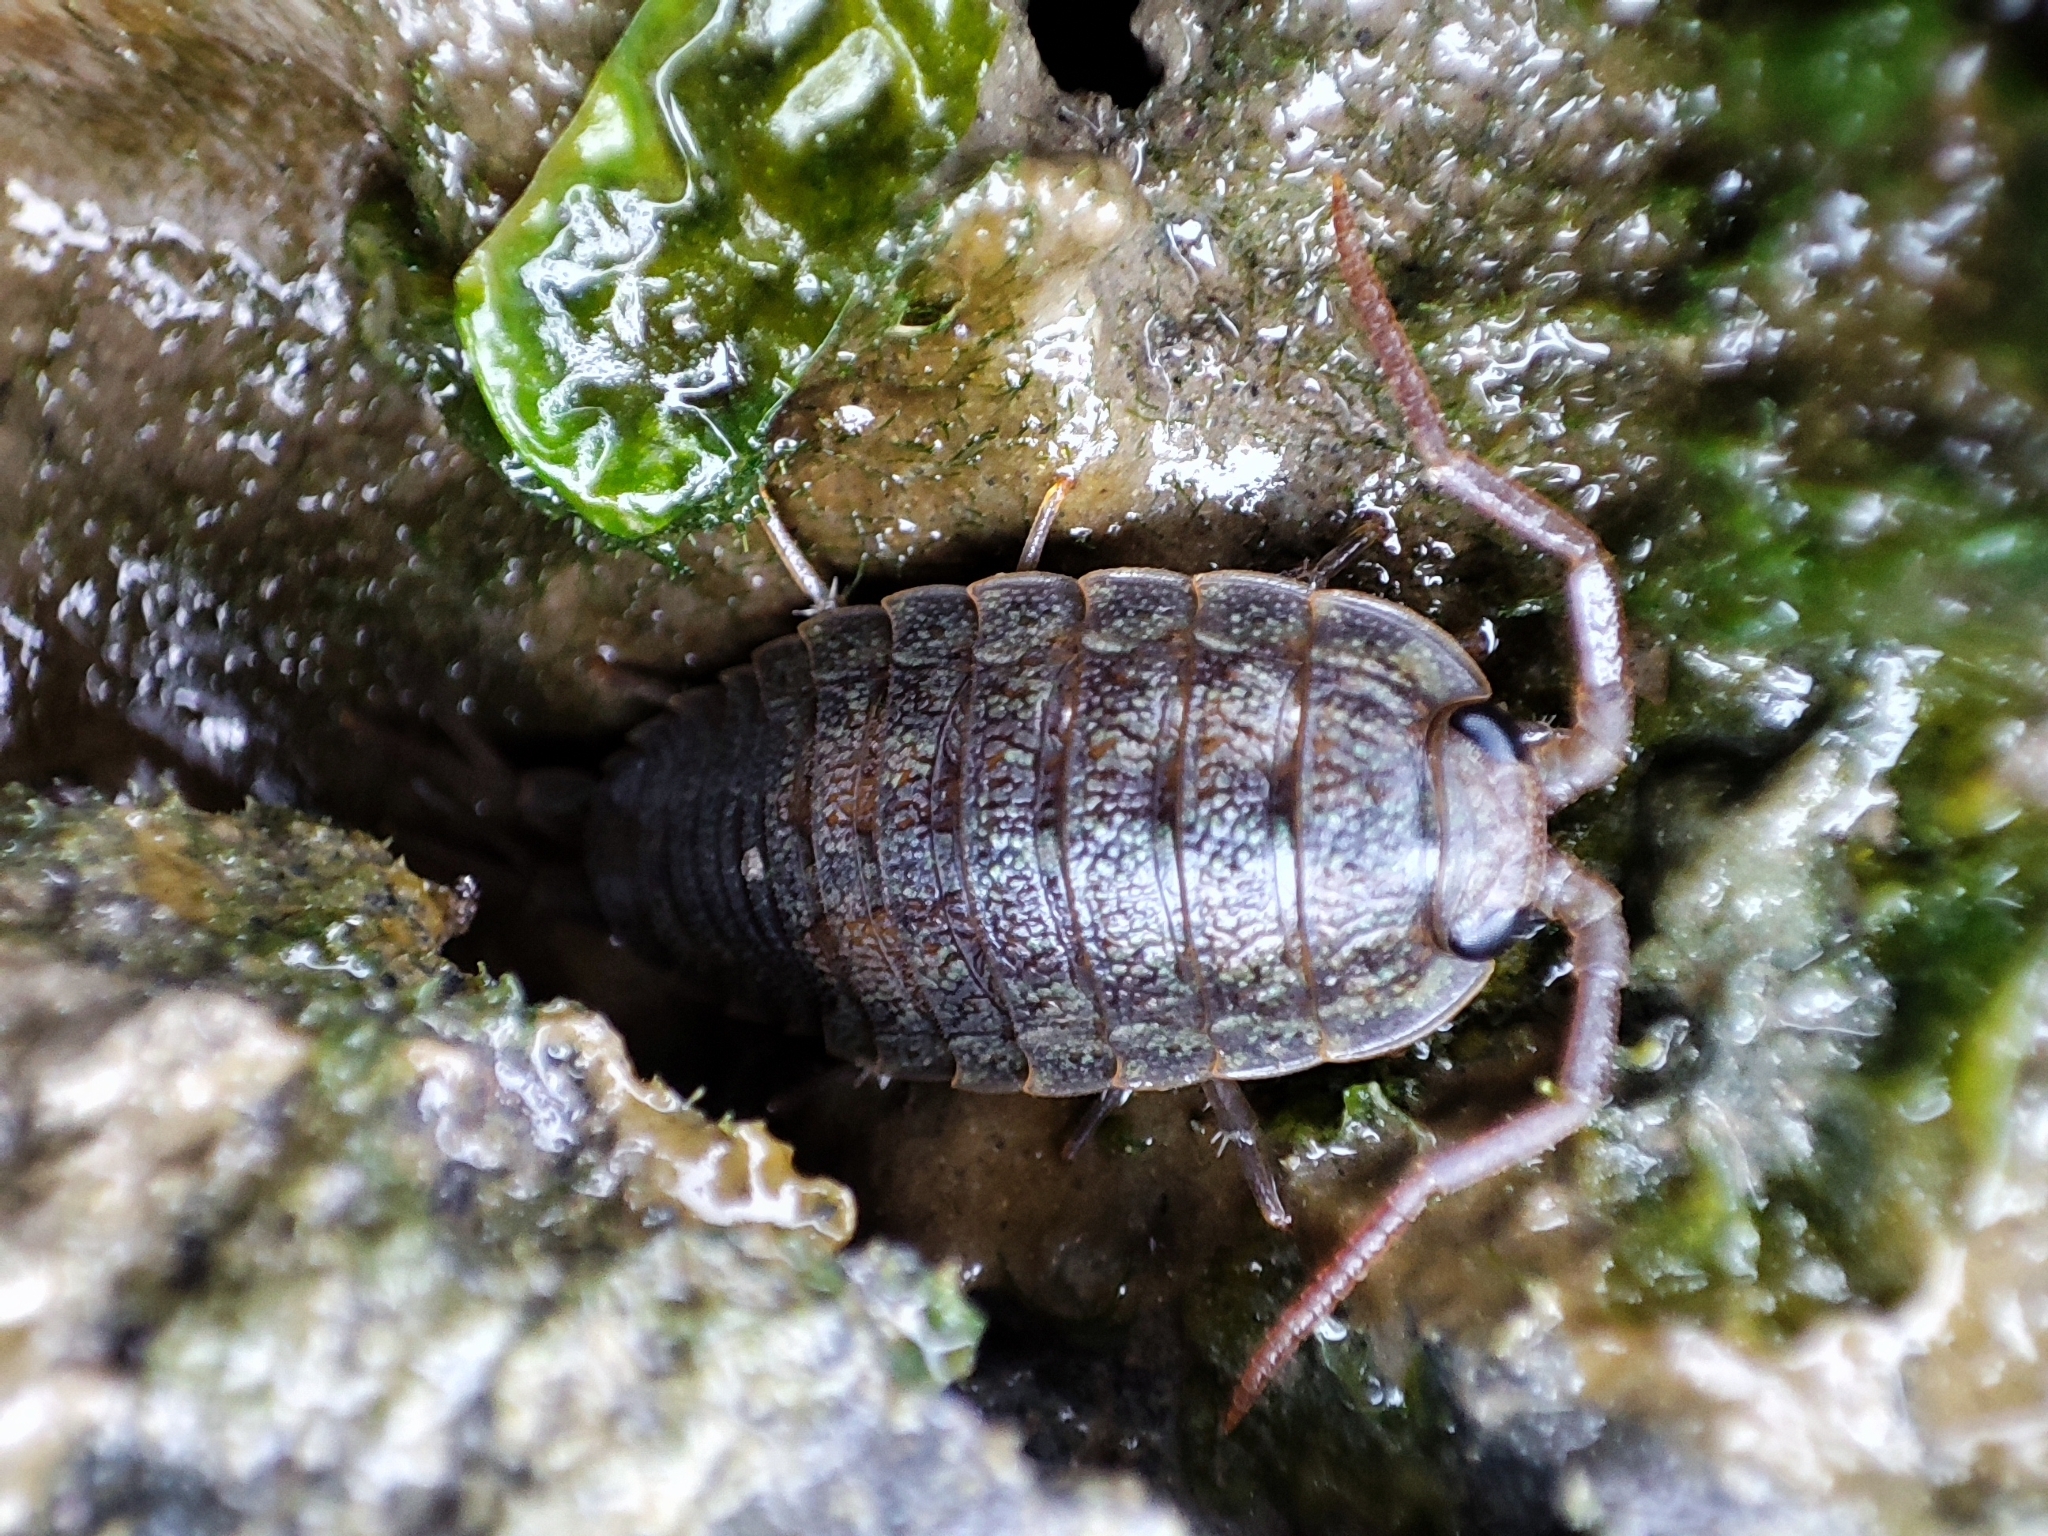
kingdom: Animalia
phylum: Arthropoda
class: Malacostraca
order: Isopoda
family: Ligiidae
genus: Ligia
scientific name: Ligia oceanica
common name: Sea slater
